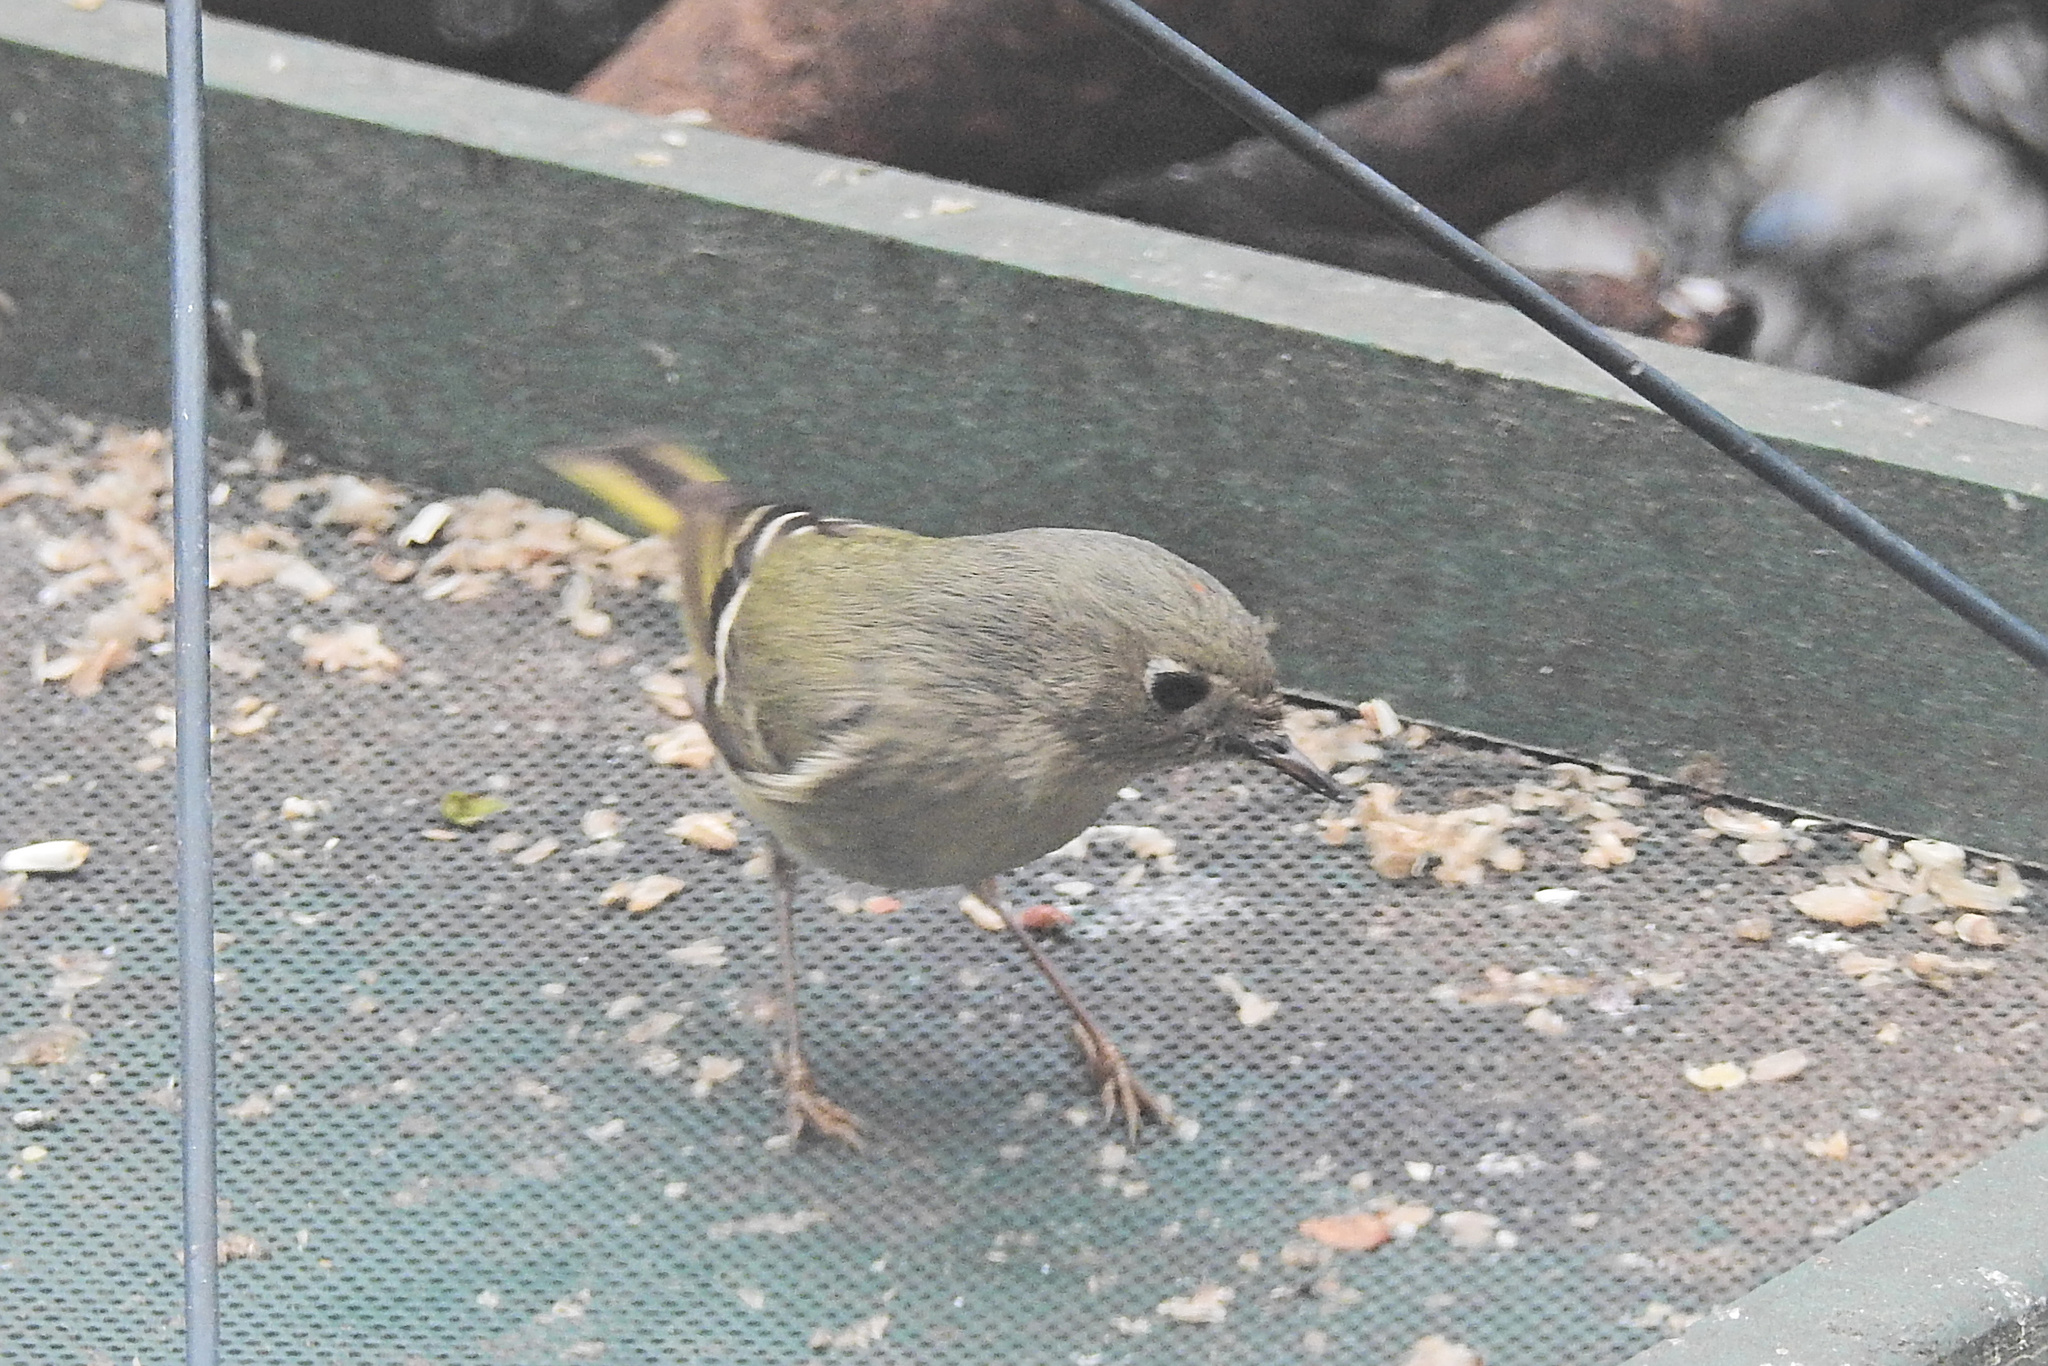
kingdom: Animalia
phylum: Chordata
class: Aves
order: Passeriformes
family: Regulidae
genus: Regulus
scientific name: Regulus calendula
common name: Ruby-crowned kinglet
